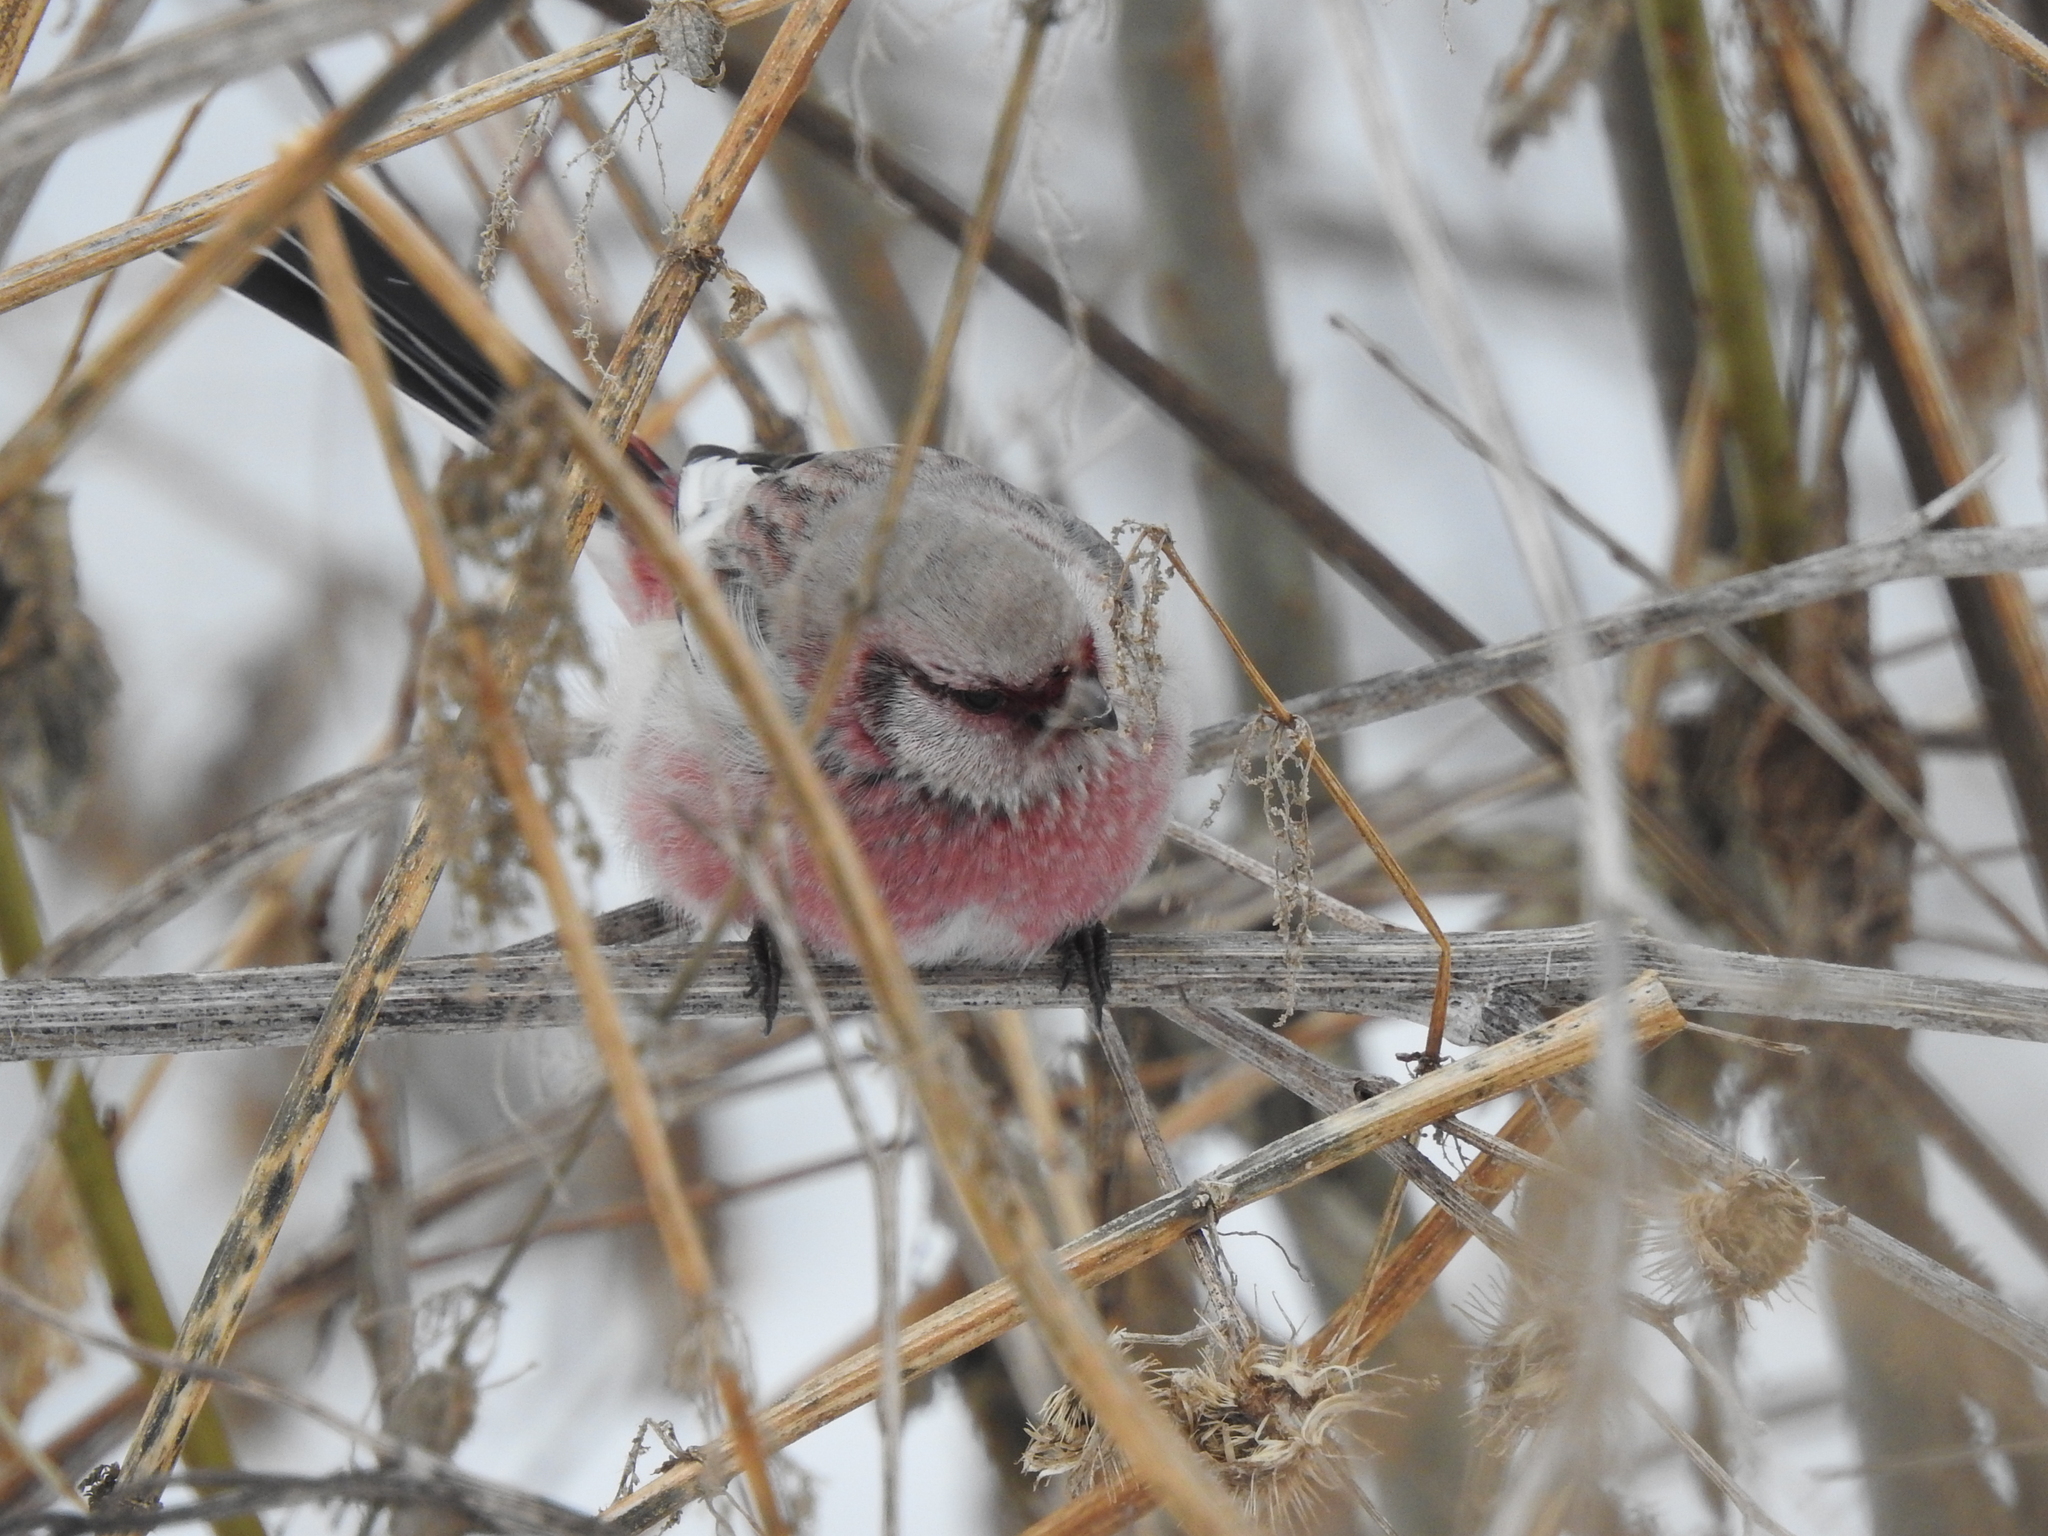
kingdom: Animalia
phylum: Chordata
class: Aves
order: Passeriformes
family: Fringillidae
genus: Carpodacus
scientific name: Carpodacus sibiricus
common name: Long-tailed rosefinch
